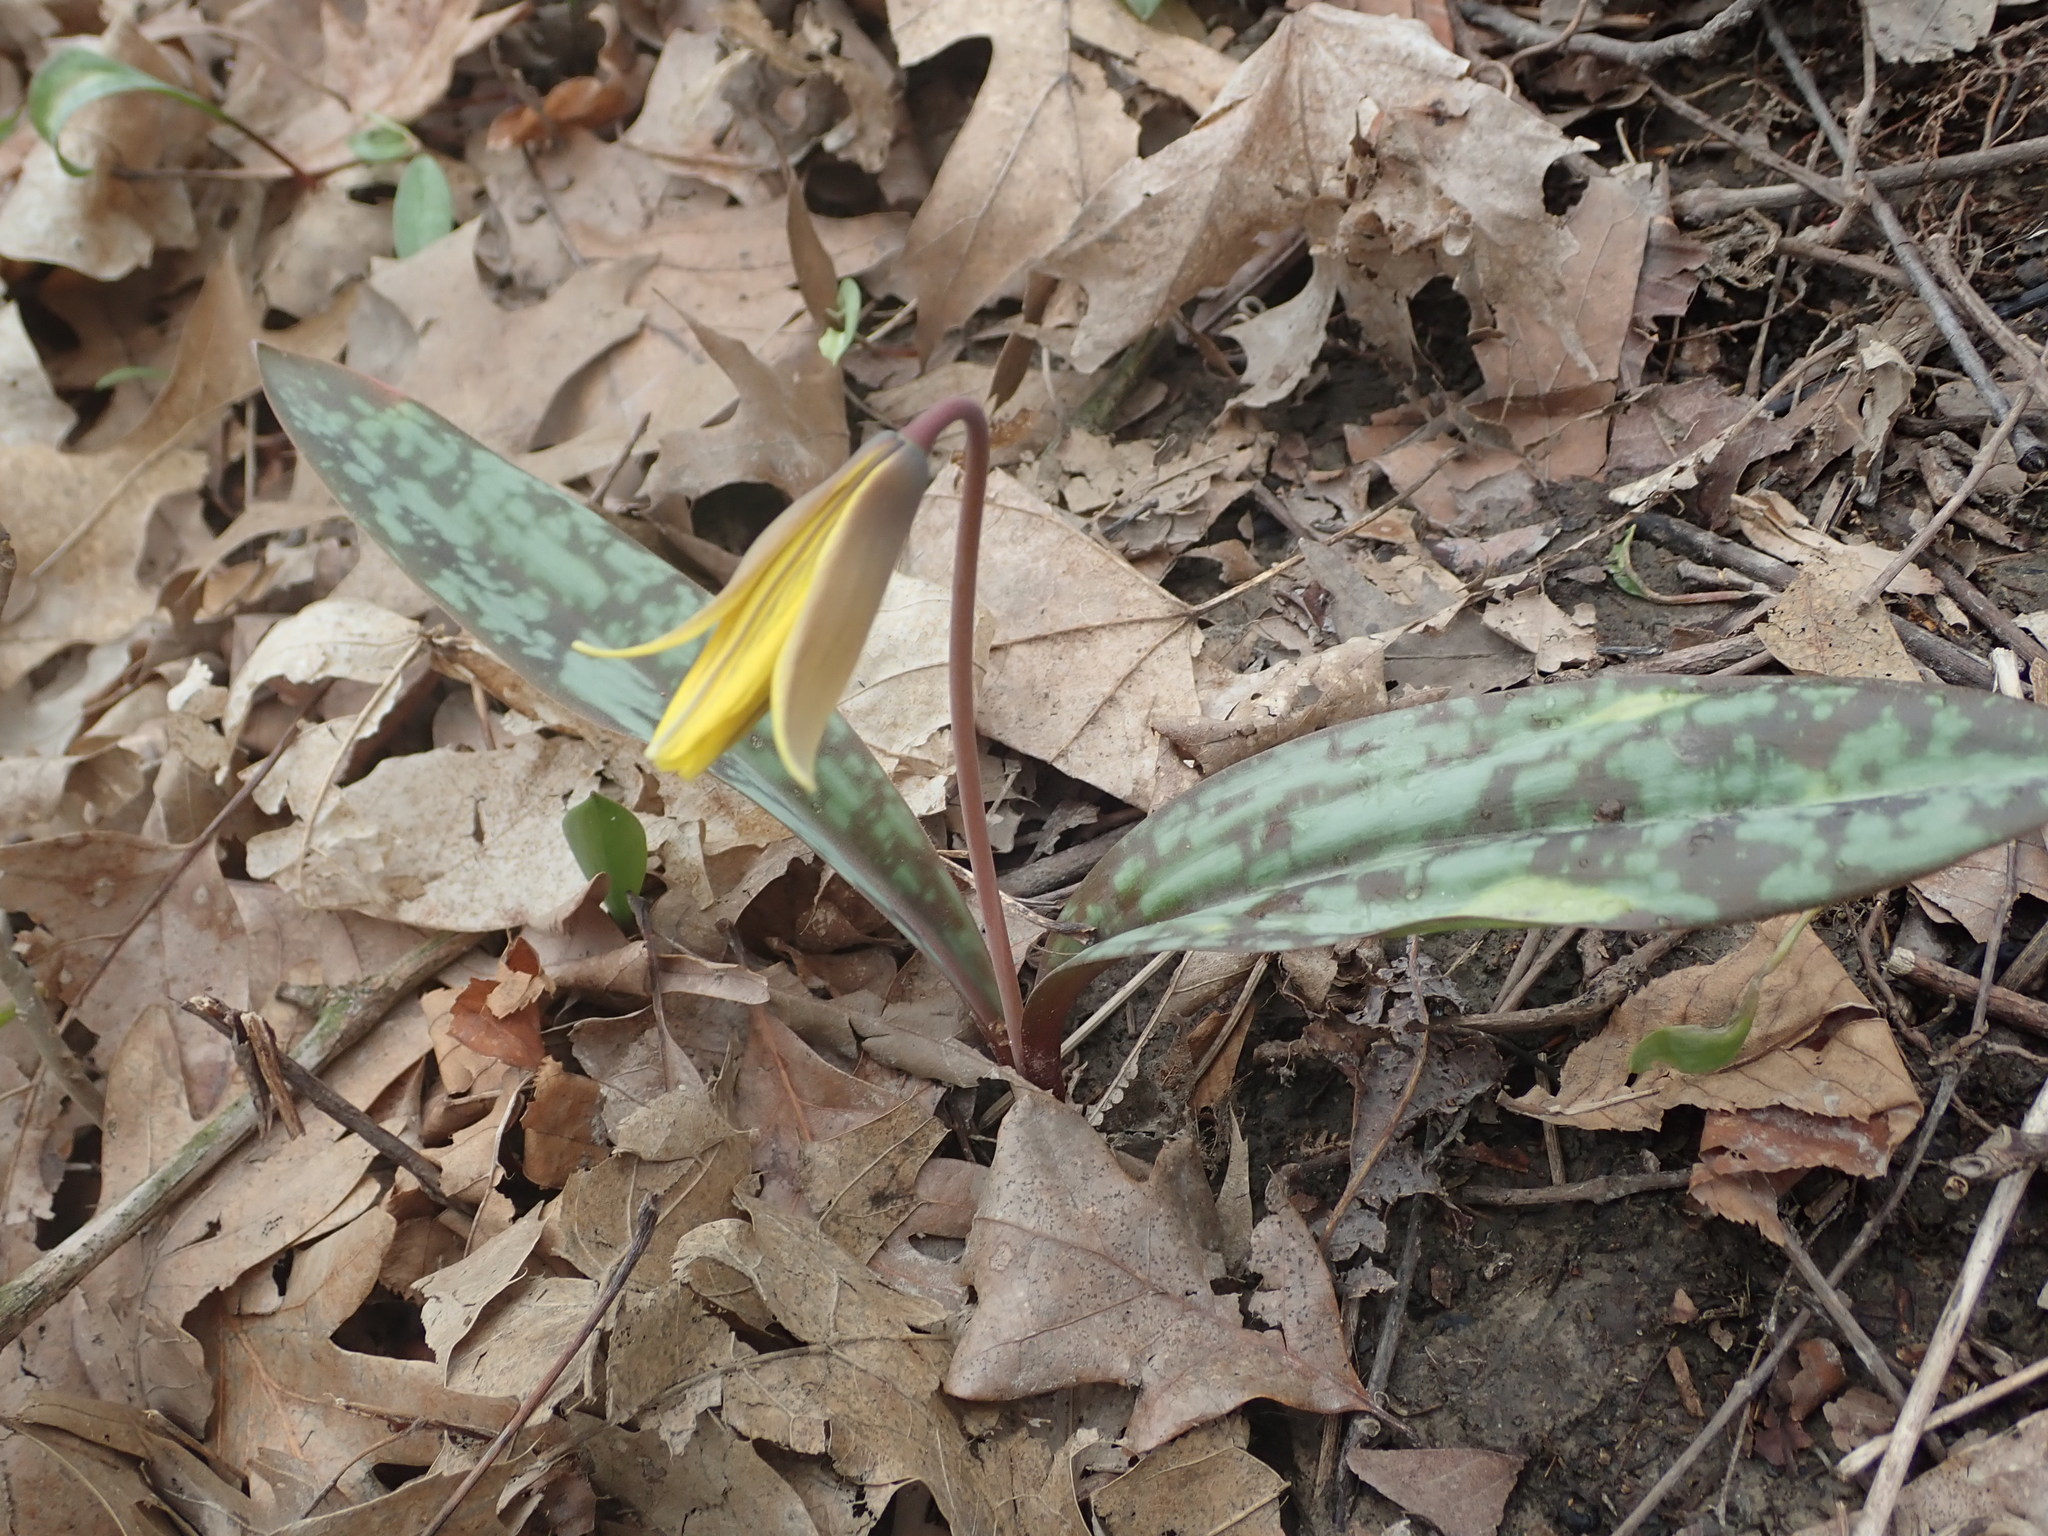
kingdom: Plantae
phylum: Tracheophyta
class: Liliopsida
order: Liliales
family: Liliaceae
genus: Erythronium
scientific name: Erythronium americanum
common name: Yellow adder's-tongue
